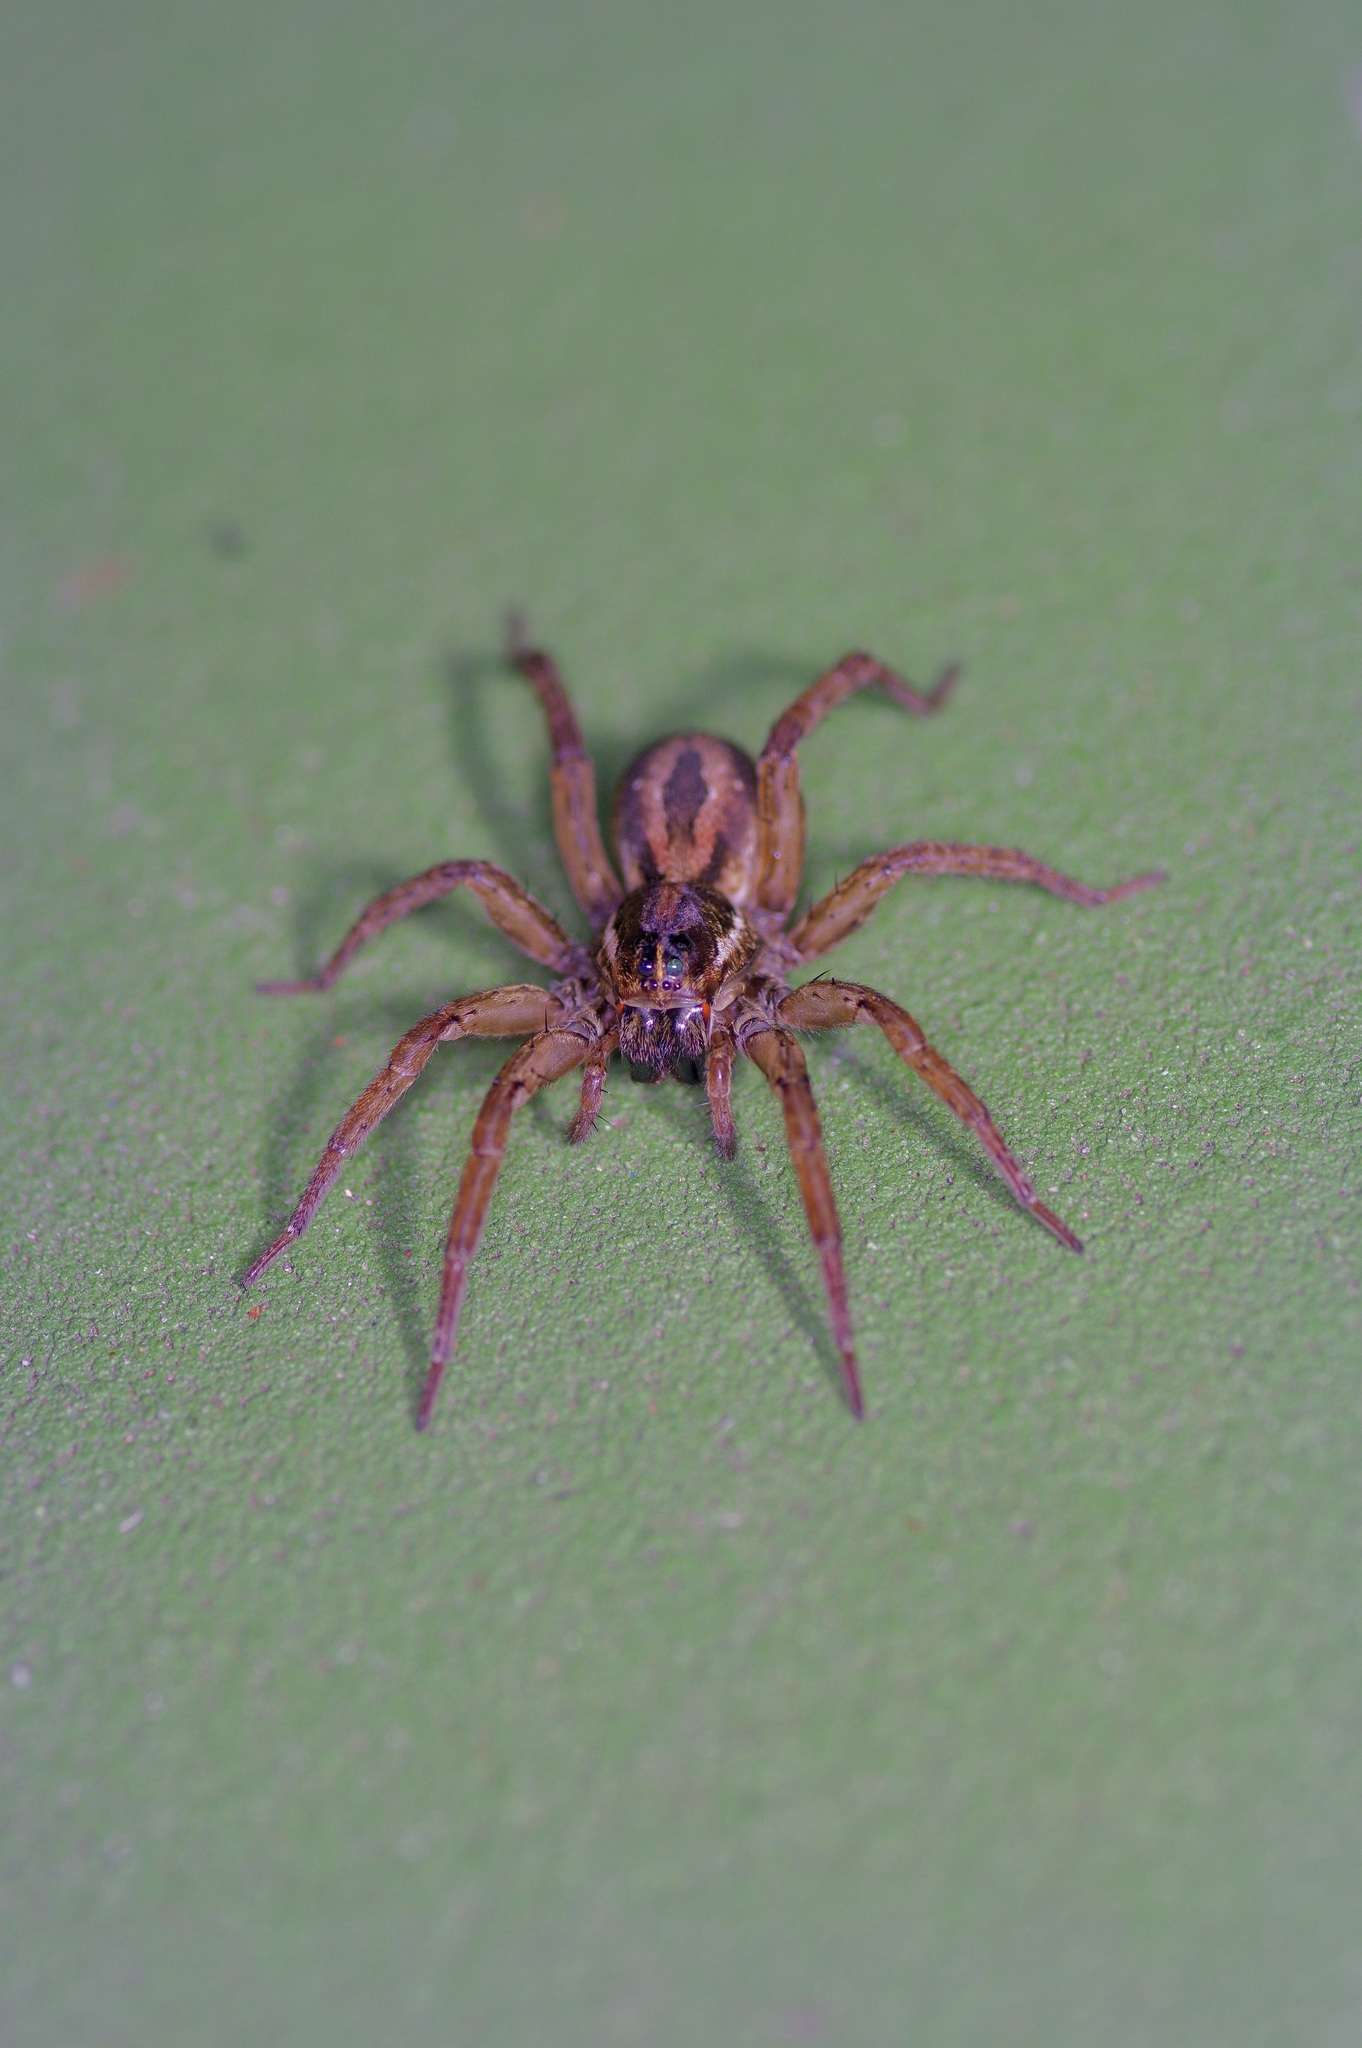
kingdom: Animalia
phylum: Arthropoda
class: Arachnida
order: Araneae
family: Lycosidae
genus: Tigrosa
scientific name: Tigrosa annexa
